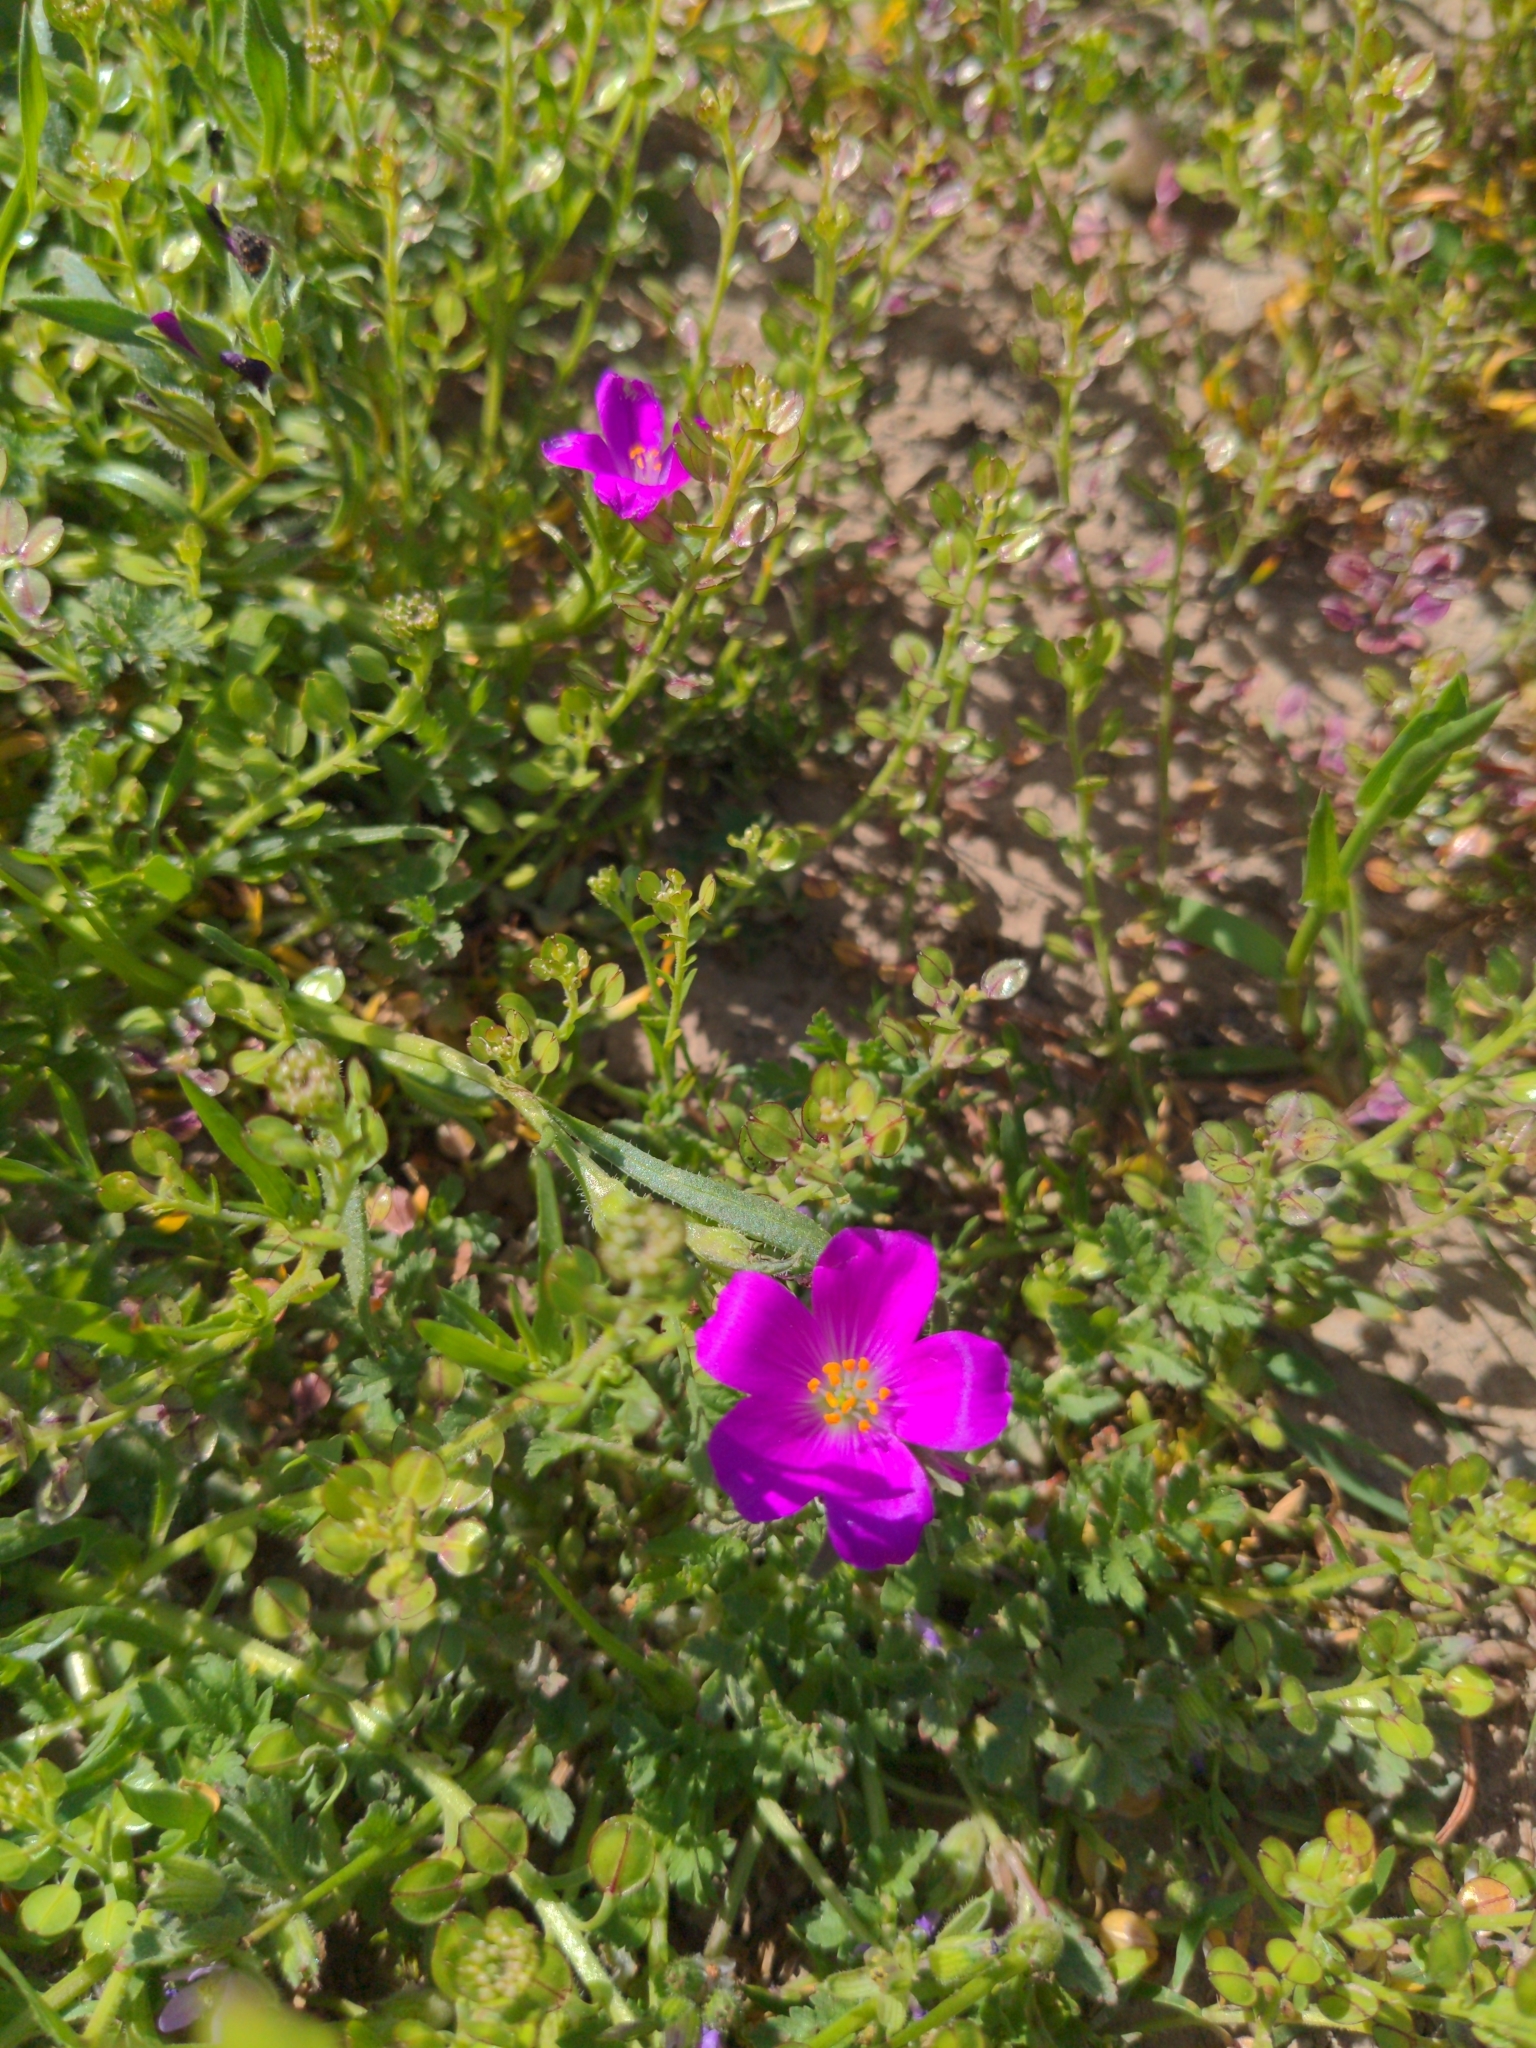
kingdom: Plantae
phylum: Tracheophyta
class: Magnoliopsida
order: Caryophyllales
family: Montiaceae
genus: Calandrinia
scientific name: Calandrinia menziesii
